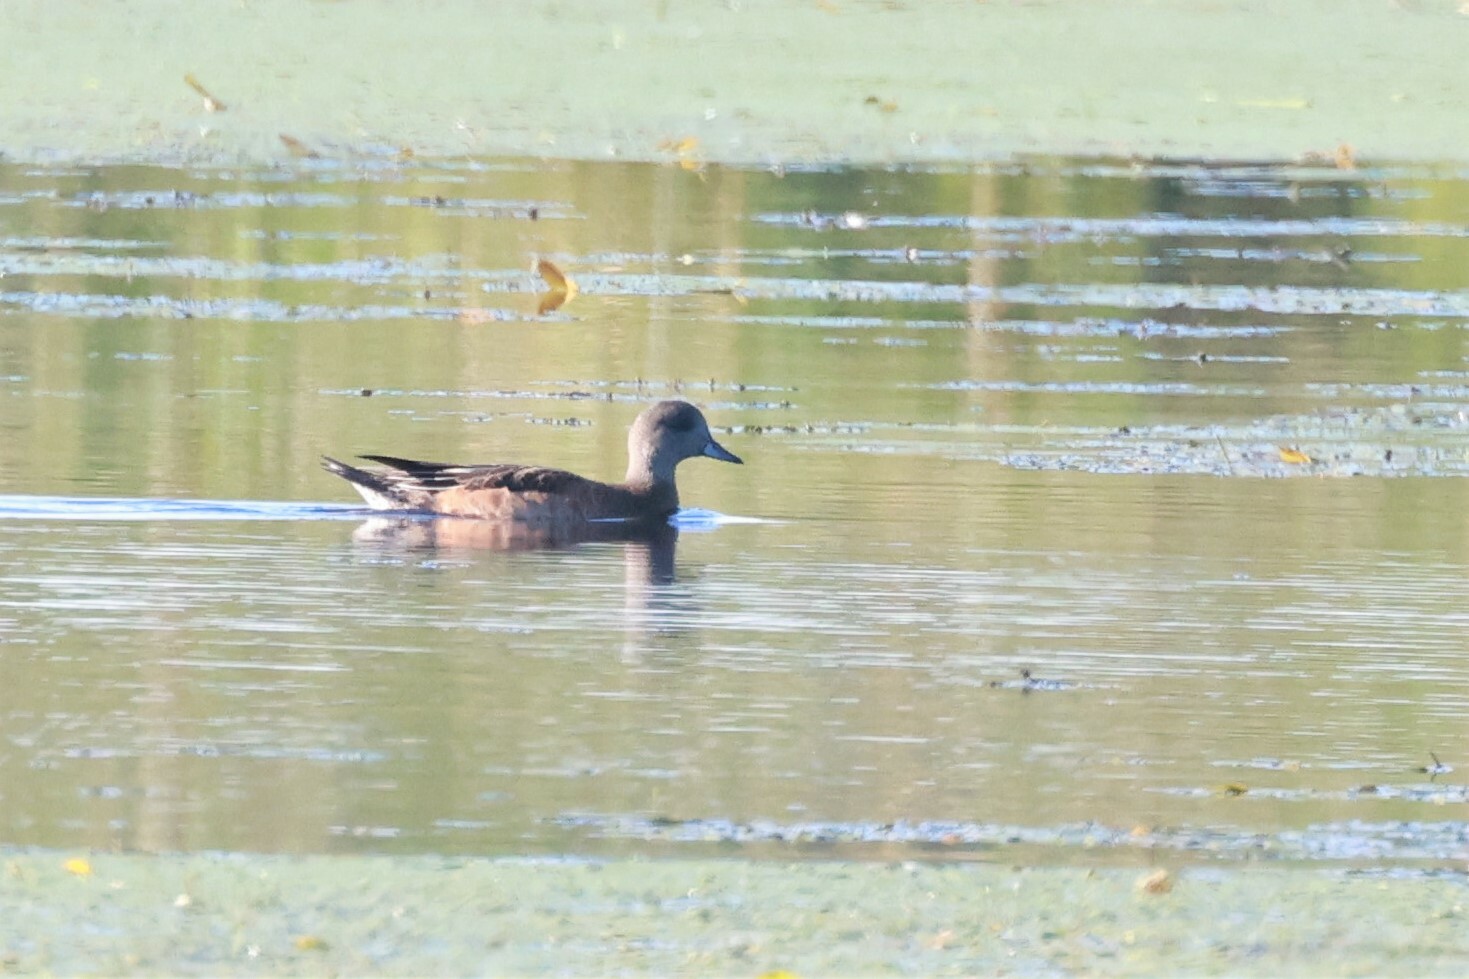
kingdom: Animalia
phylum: Chordata
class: Aves
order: Anseriformes
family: Anatidae
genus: Mareca
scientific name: Mareca americana
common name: American wigeon
